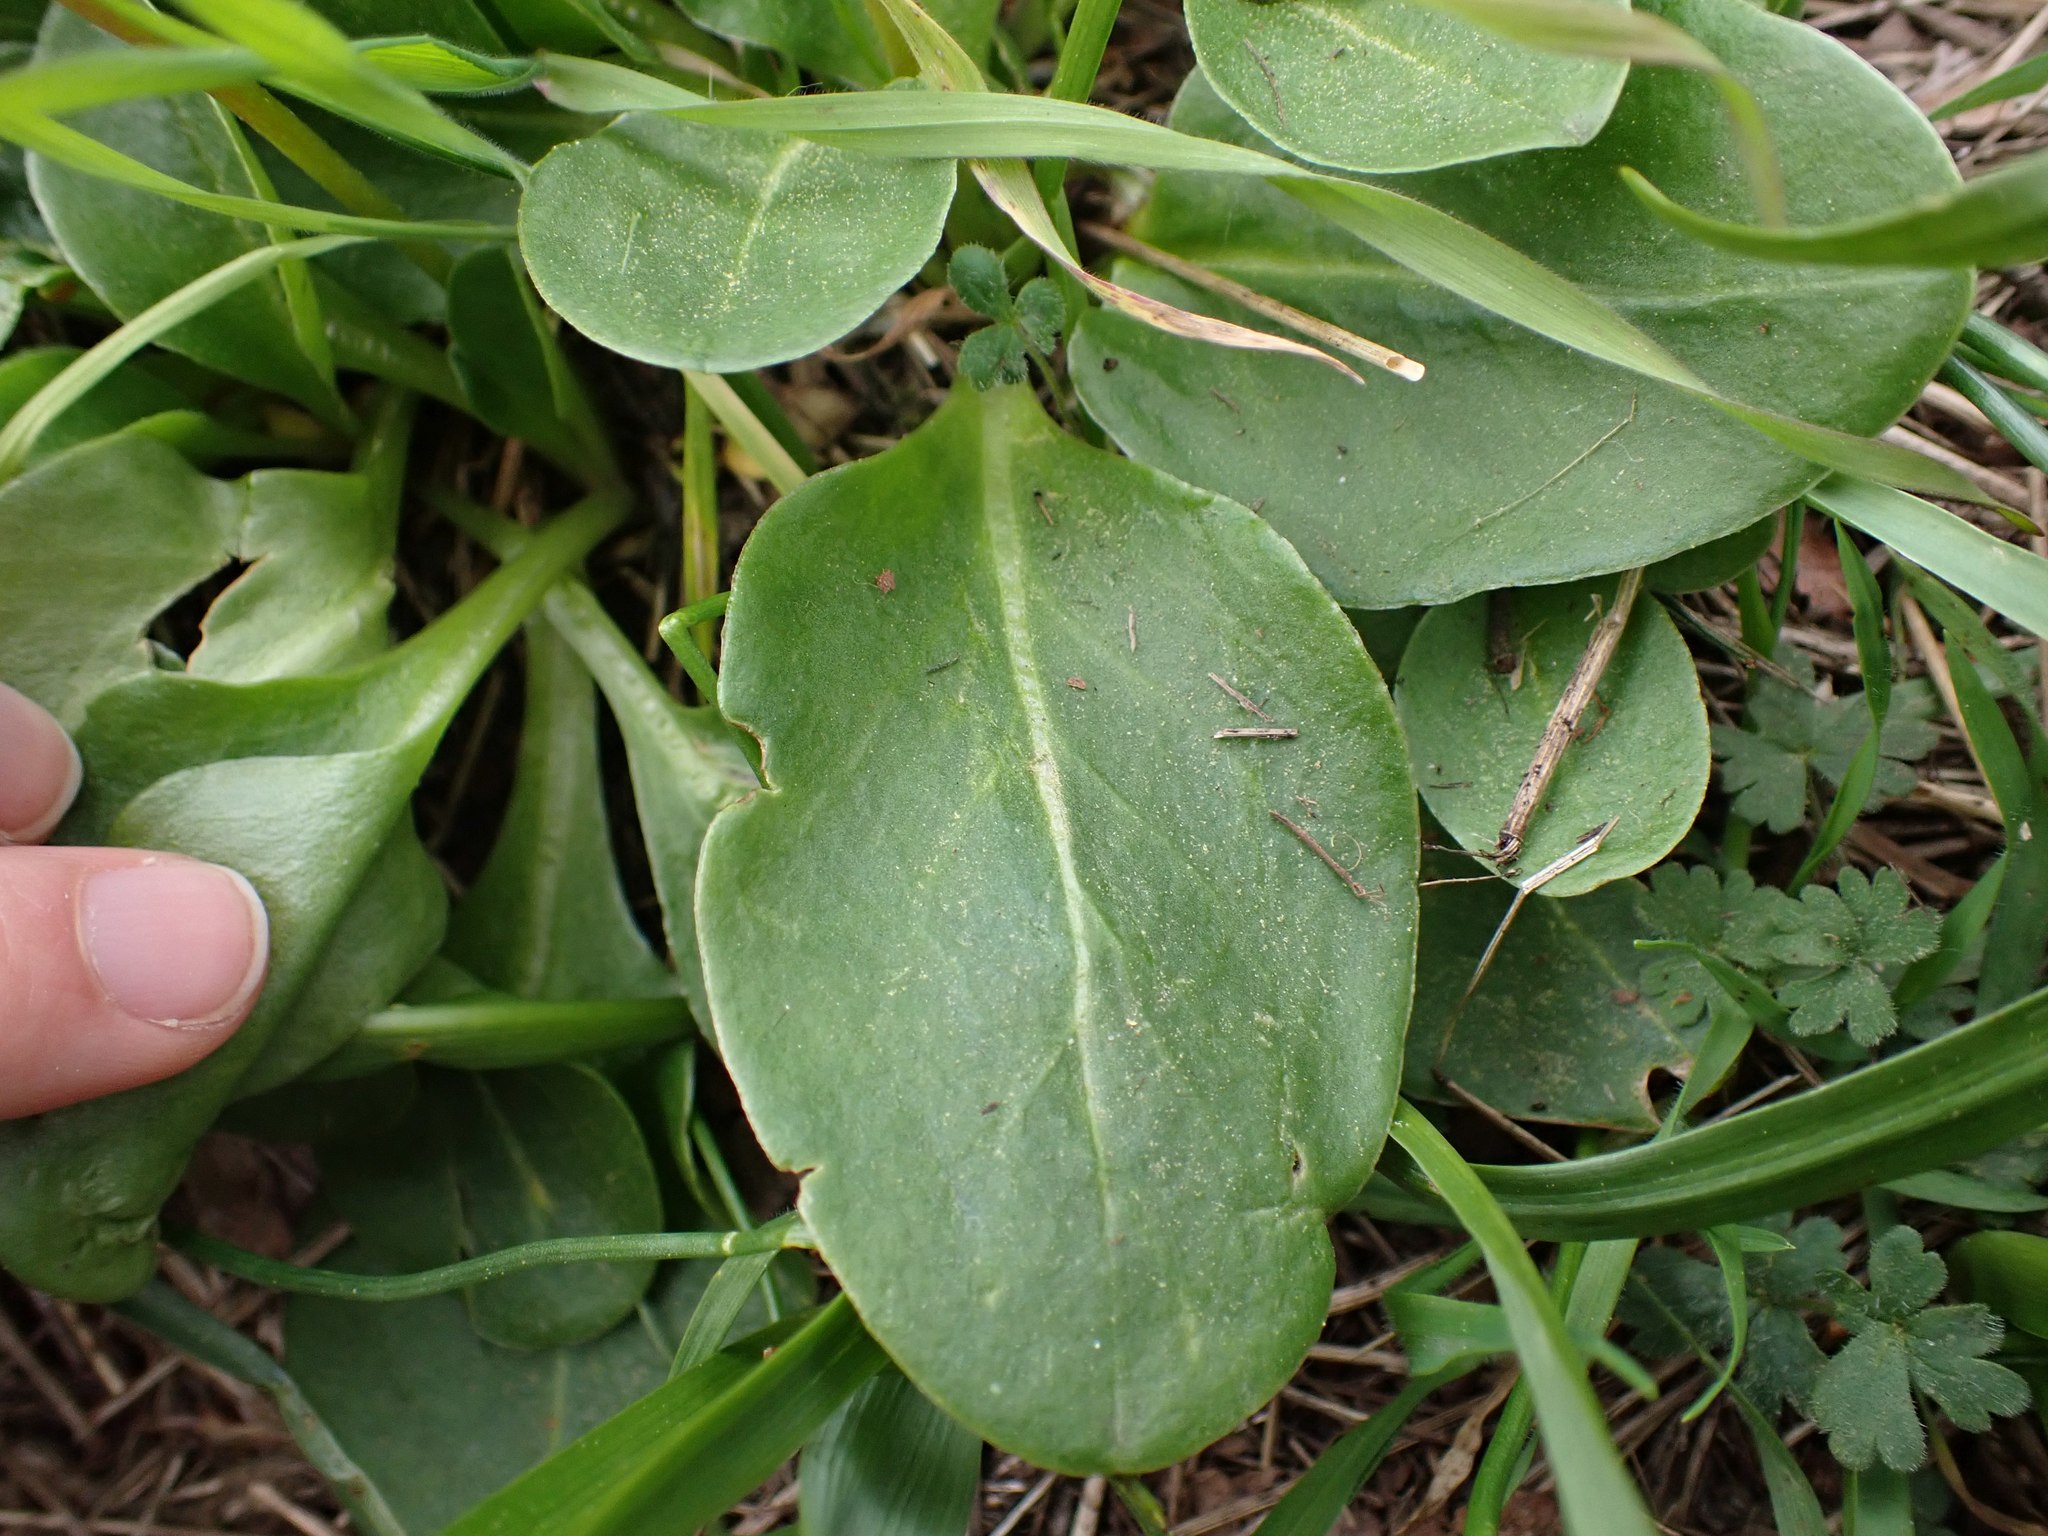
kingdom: Plantae
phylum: Tracheophyta
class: Magnoliopsida
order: Ericales
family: Primulaceae
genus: Dodecatheon
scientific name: Dodecatheon hendersonii
